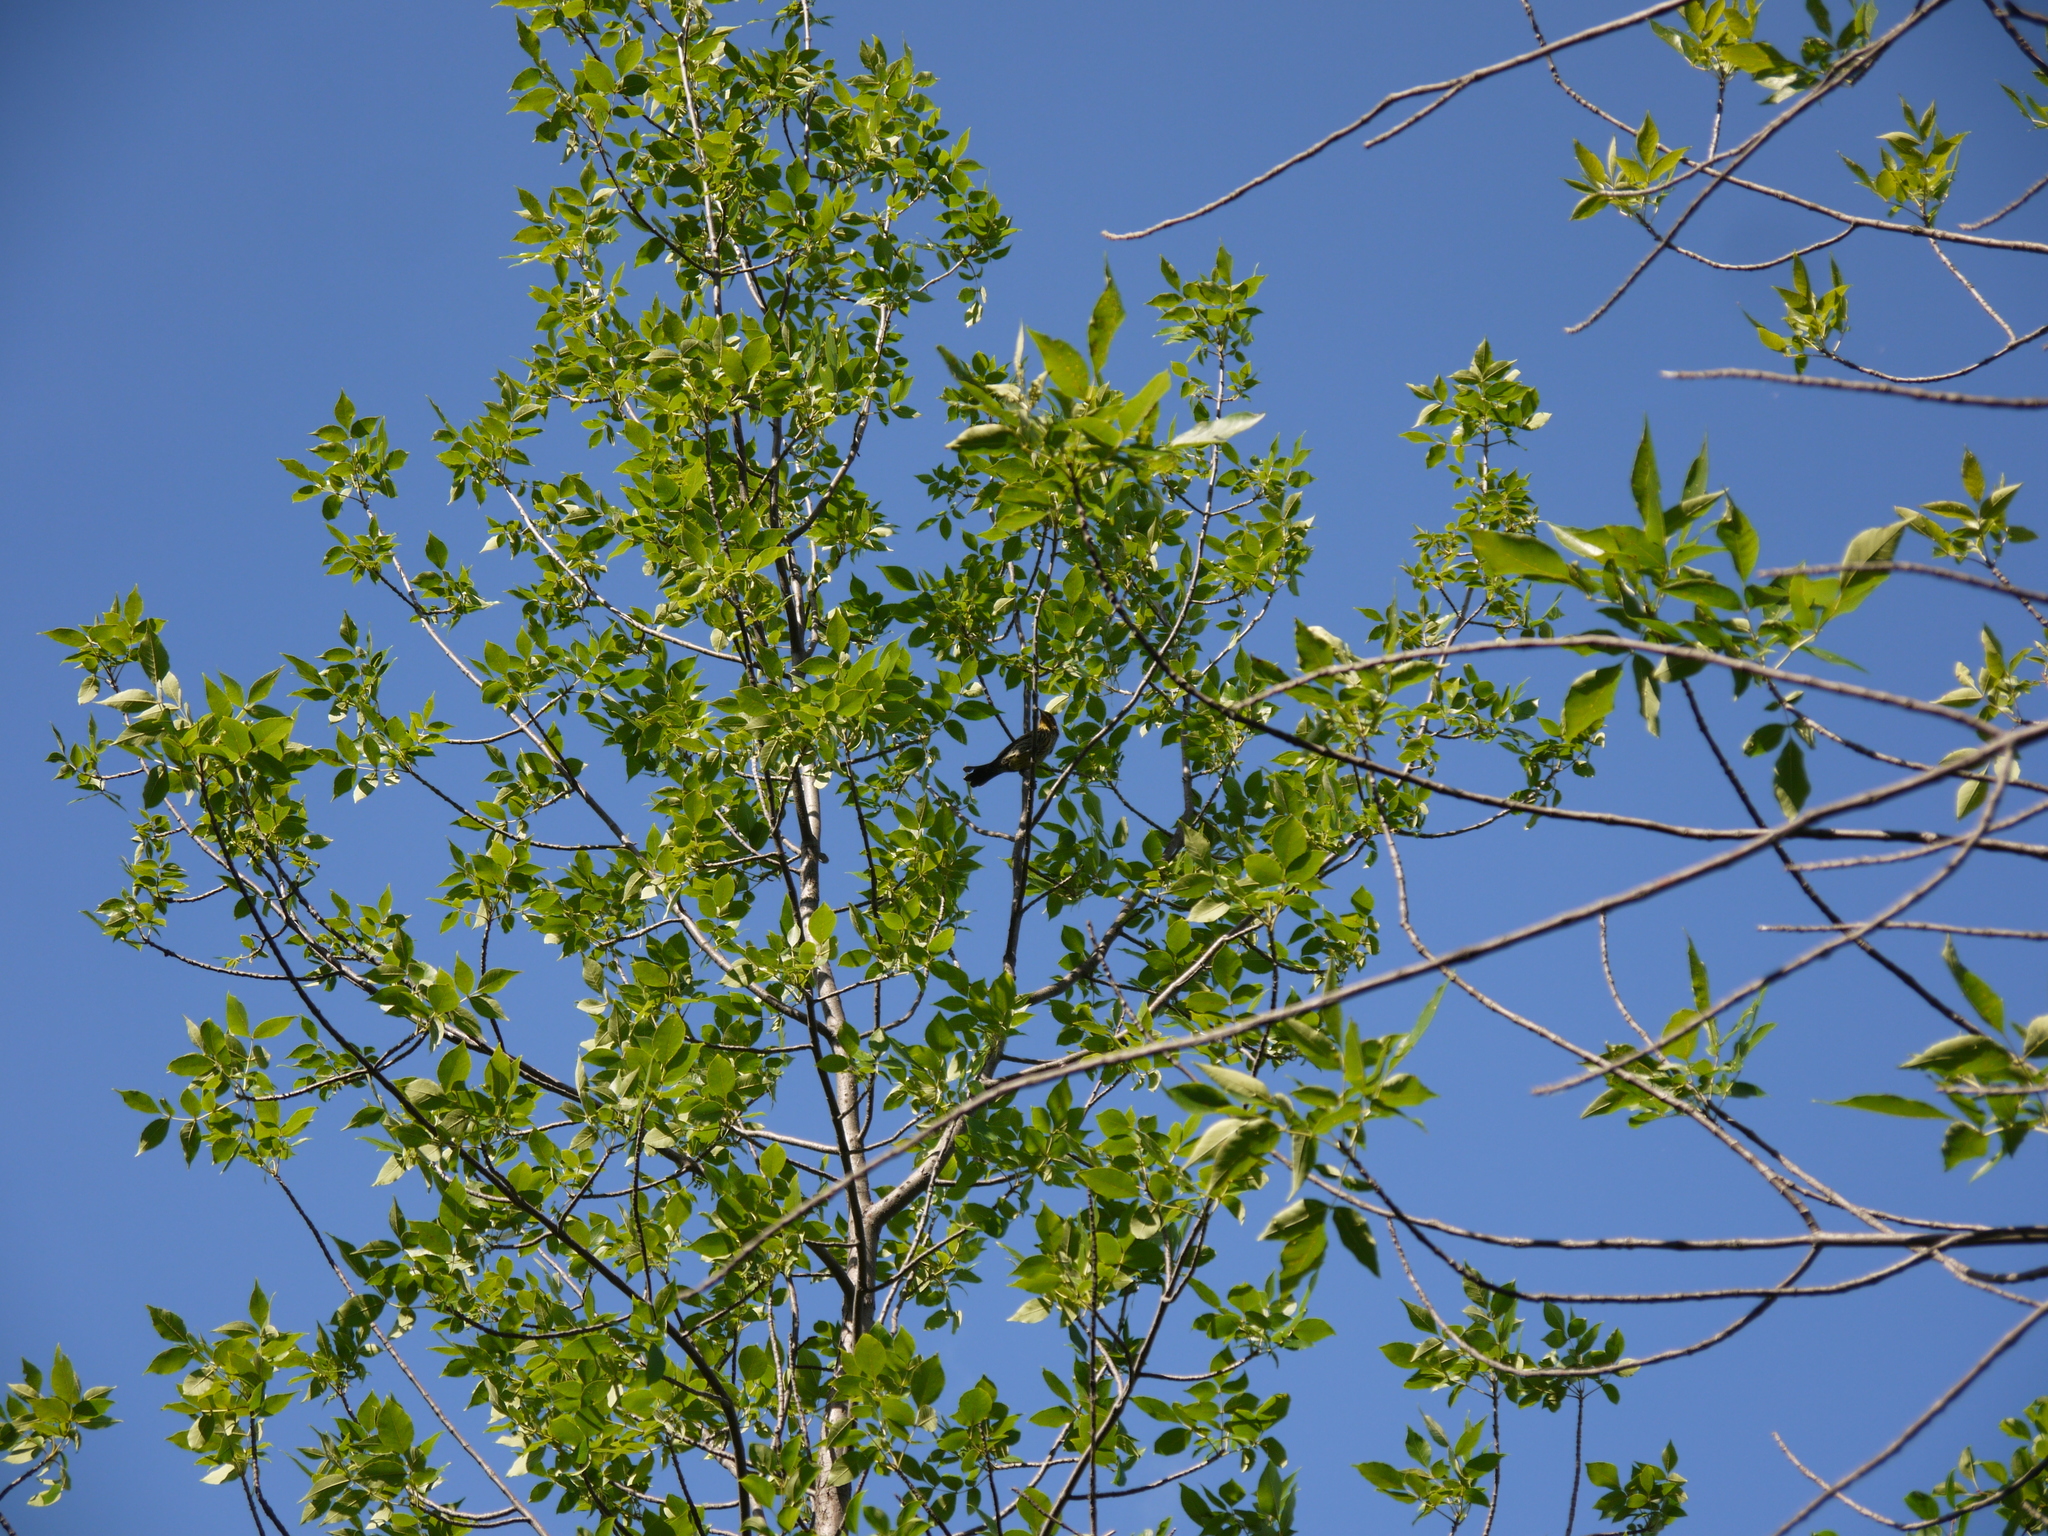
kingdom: Animalia
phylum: Chordata
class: Aves
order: Passeriformes
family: Icteridae
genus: Agelaius
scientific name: Agelaius phoeniceus
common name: Red-winged blackbird
